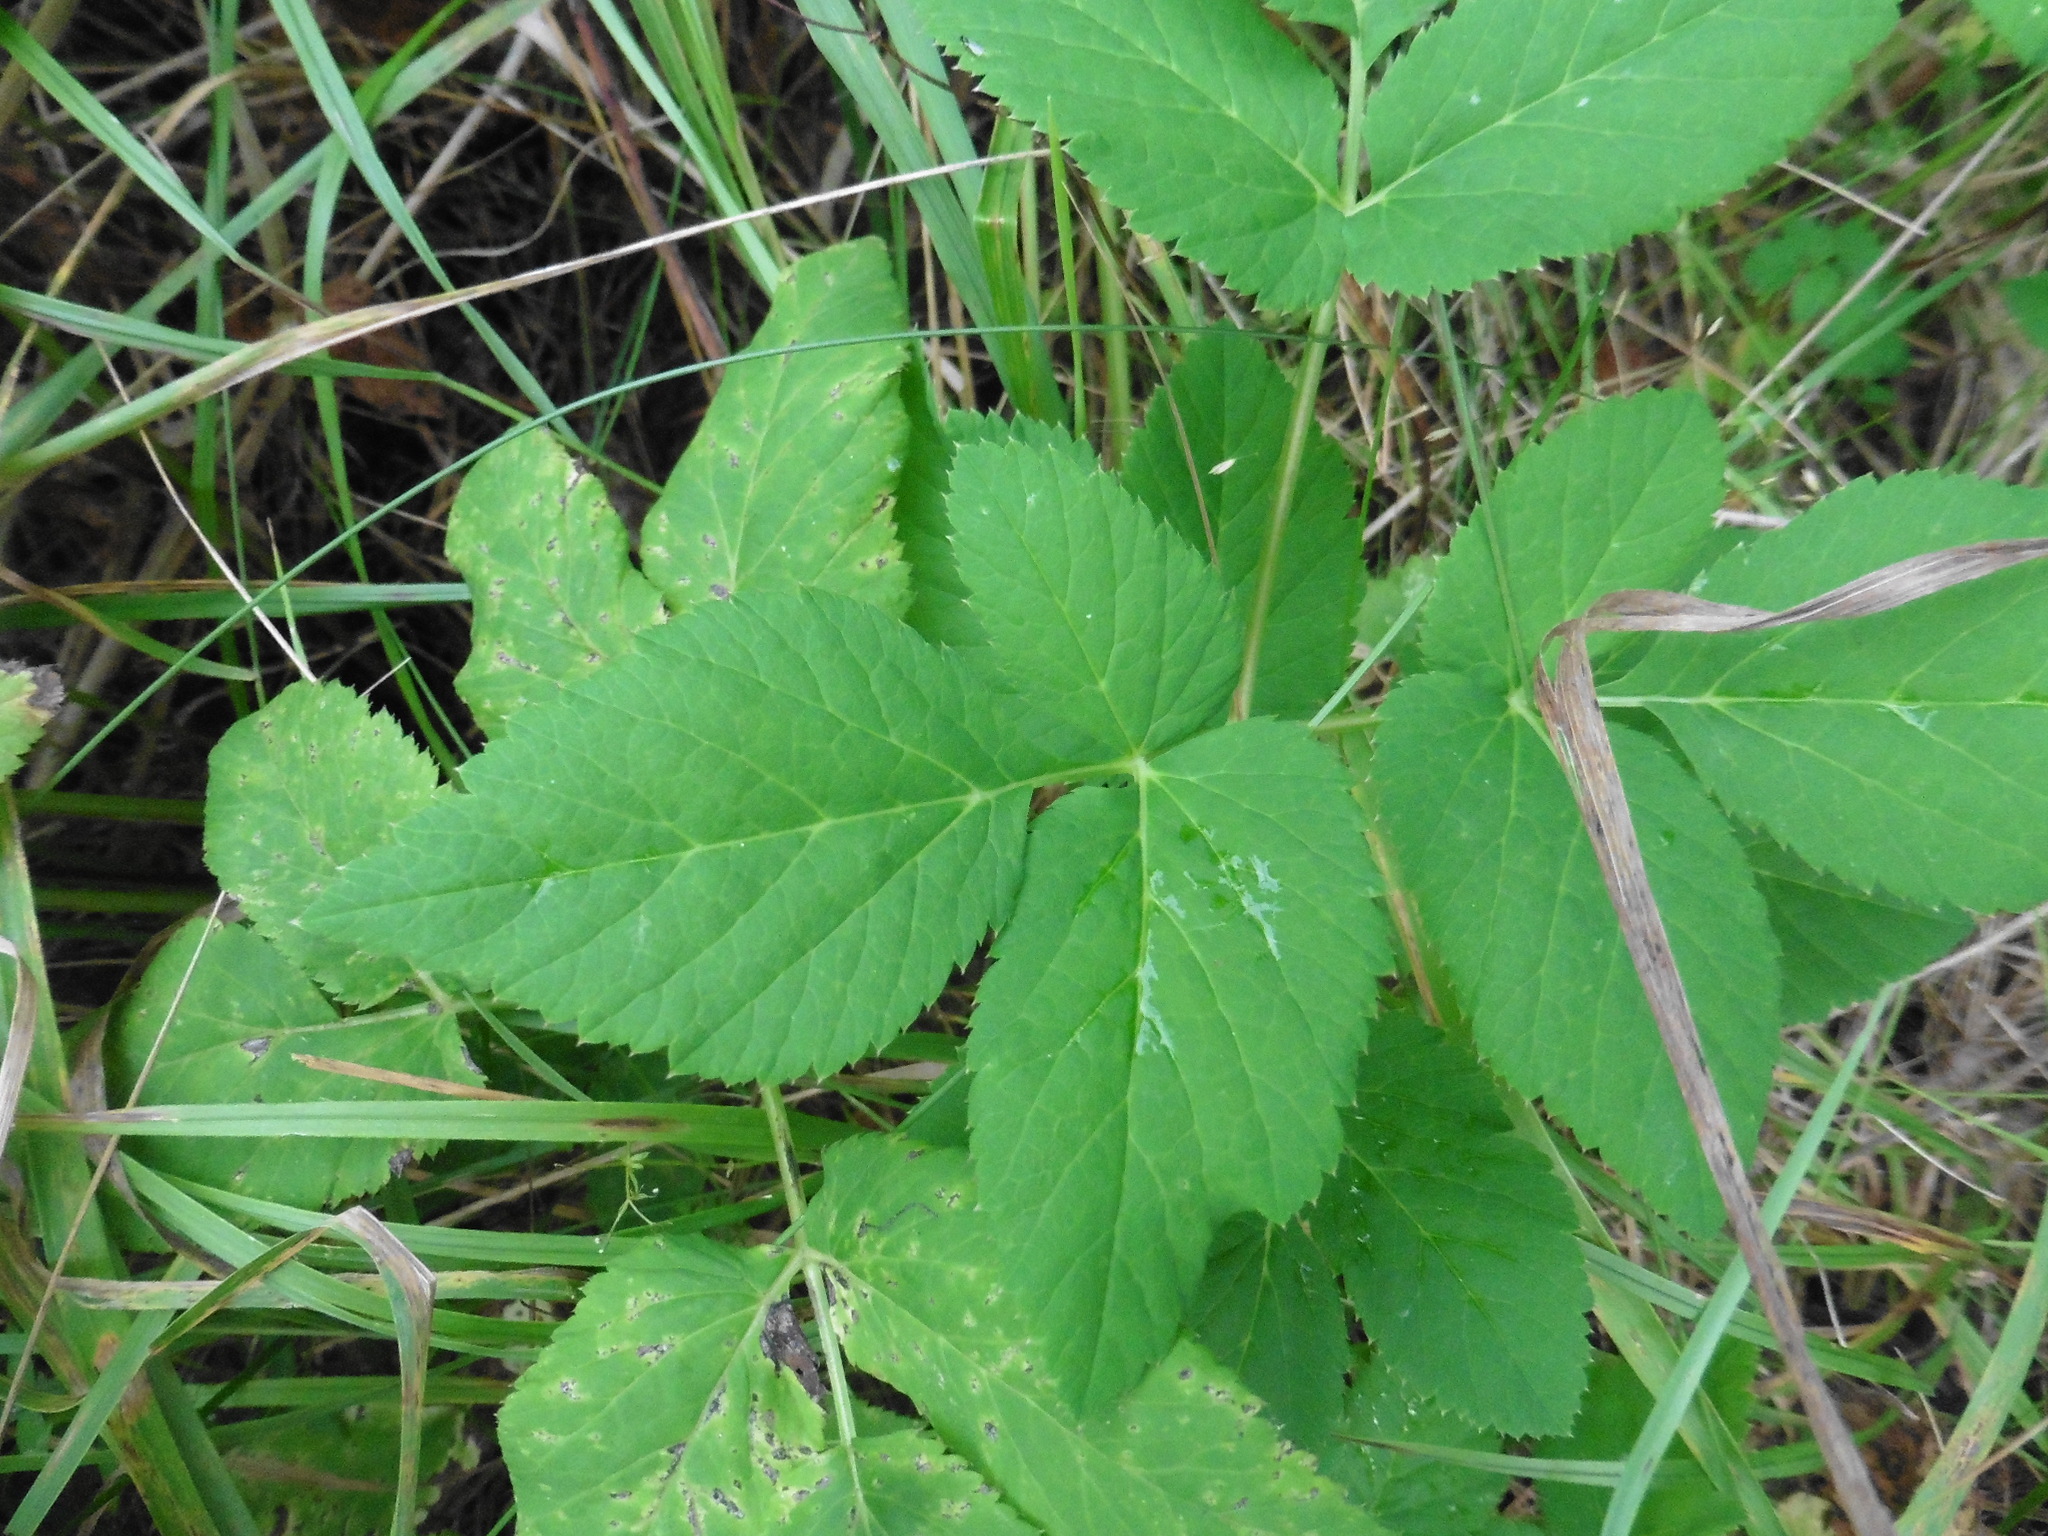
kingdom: Plantae
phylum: Tracheophyta
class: Magnoliopsida
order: Apiales
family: Apiaceae
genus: Aegopodium
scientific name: Aegopodium podagraria
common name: Ground-elder
